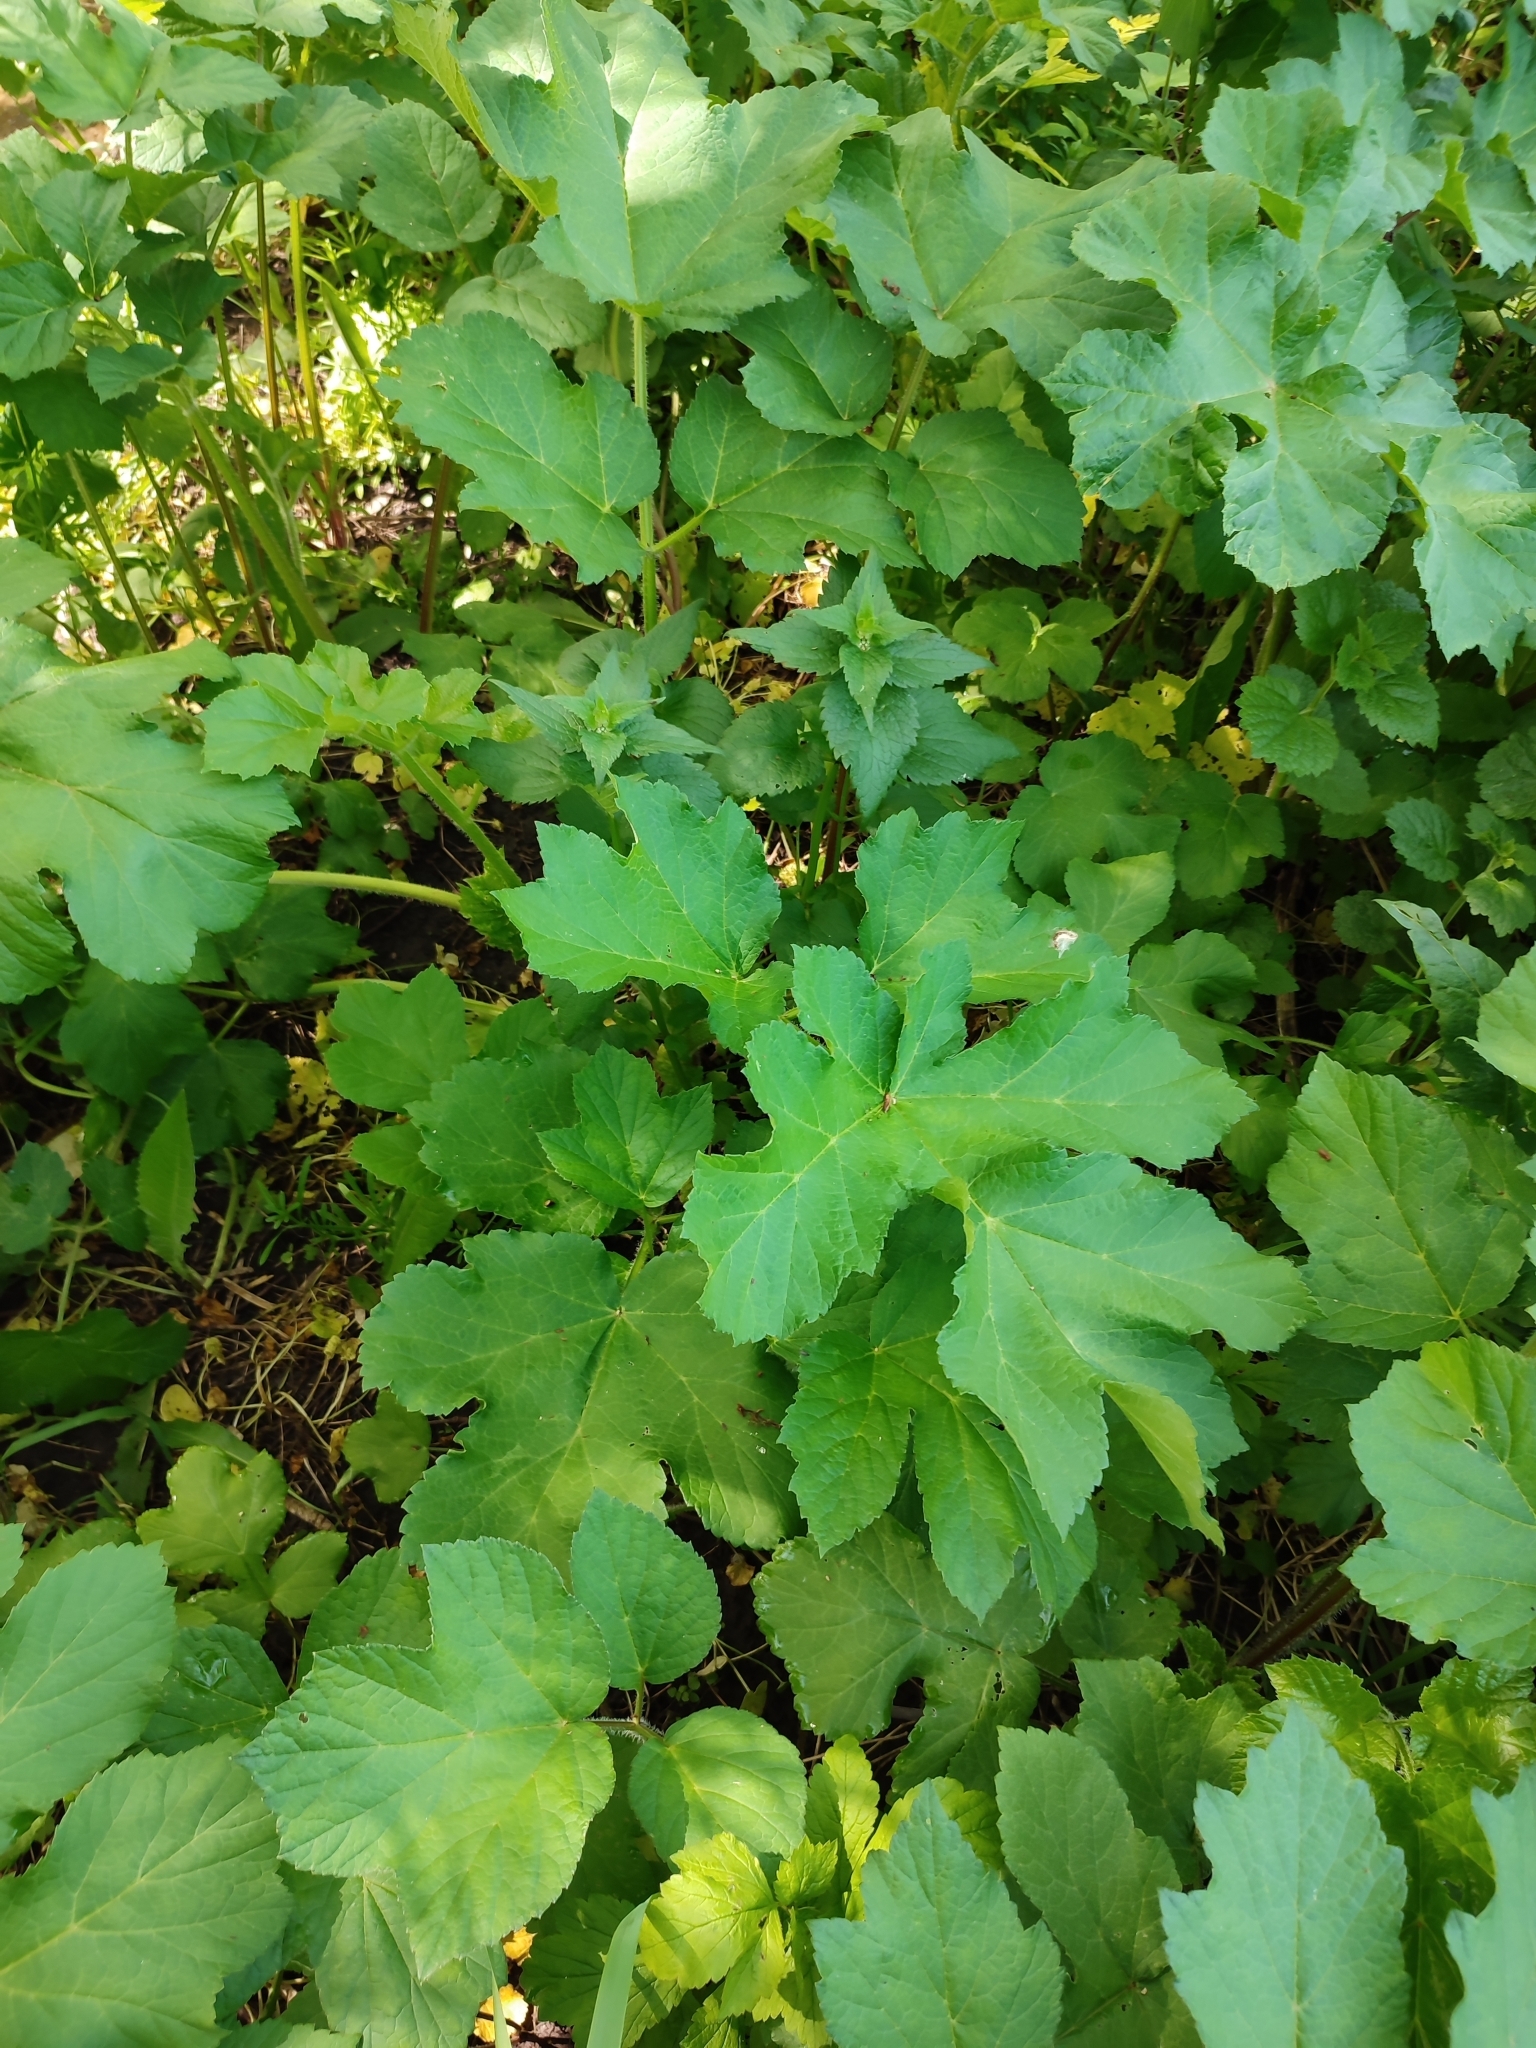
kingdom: Plantae
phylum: Tracheophyta
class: Magnoliopsida
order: Apiales
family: Apiaceae
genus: Heracleum
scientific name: Heracleum sphondylium
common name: Hogweed
